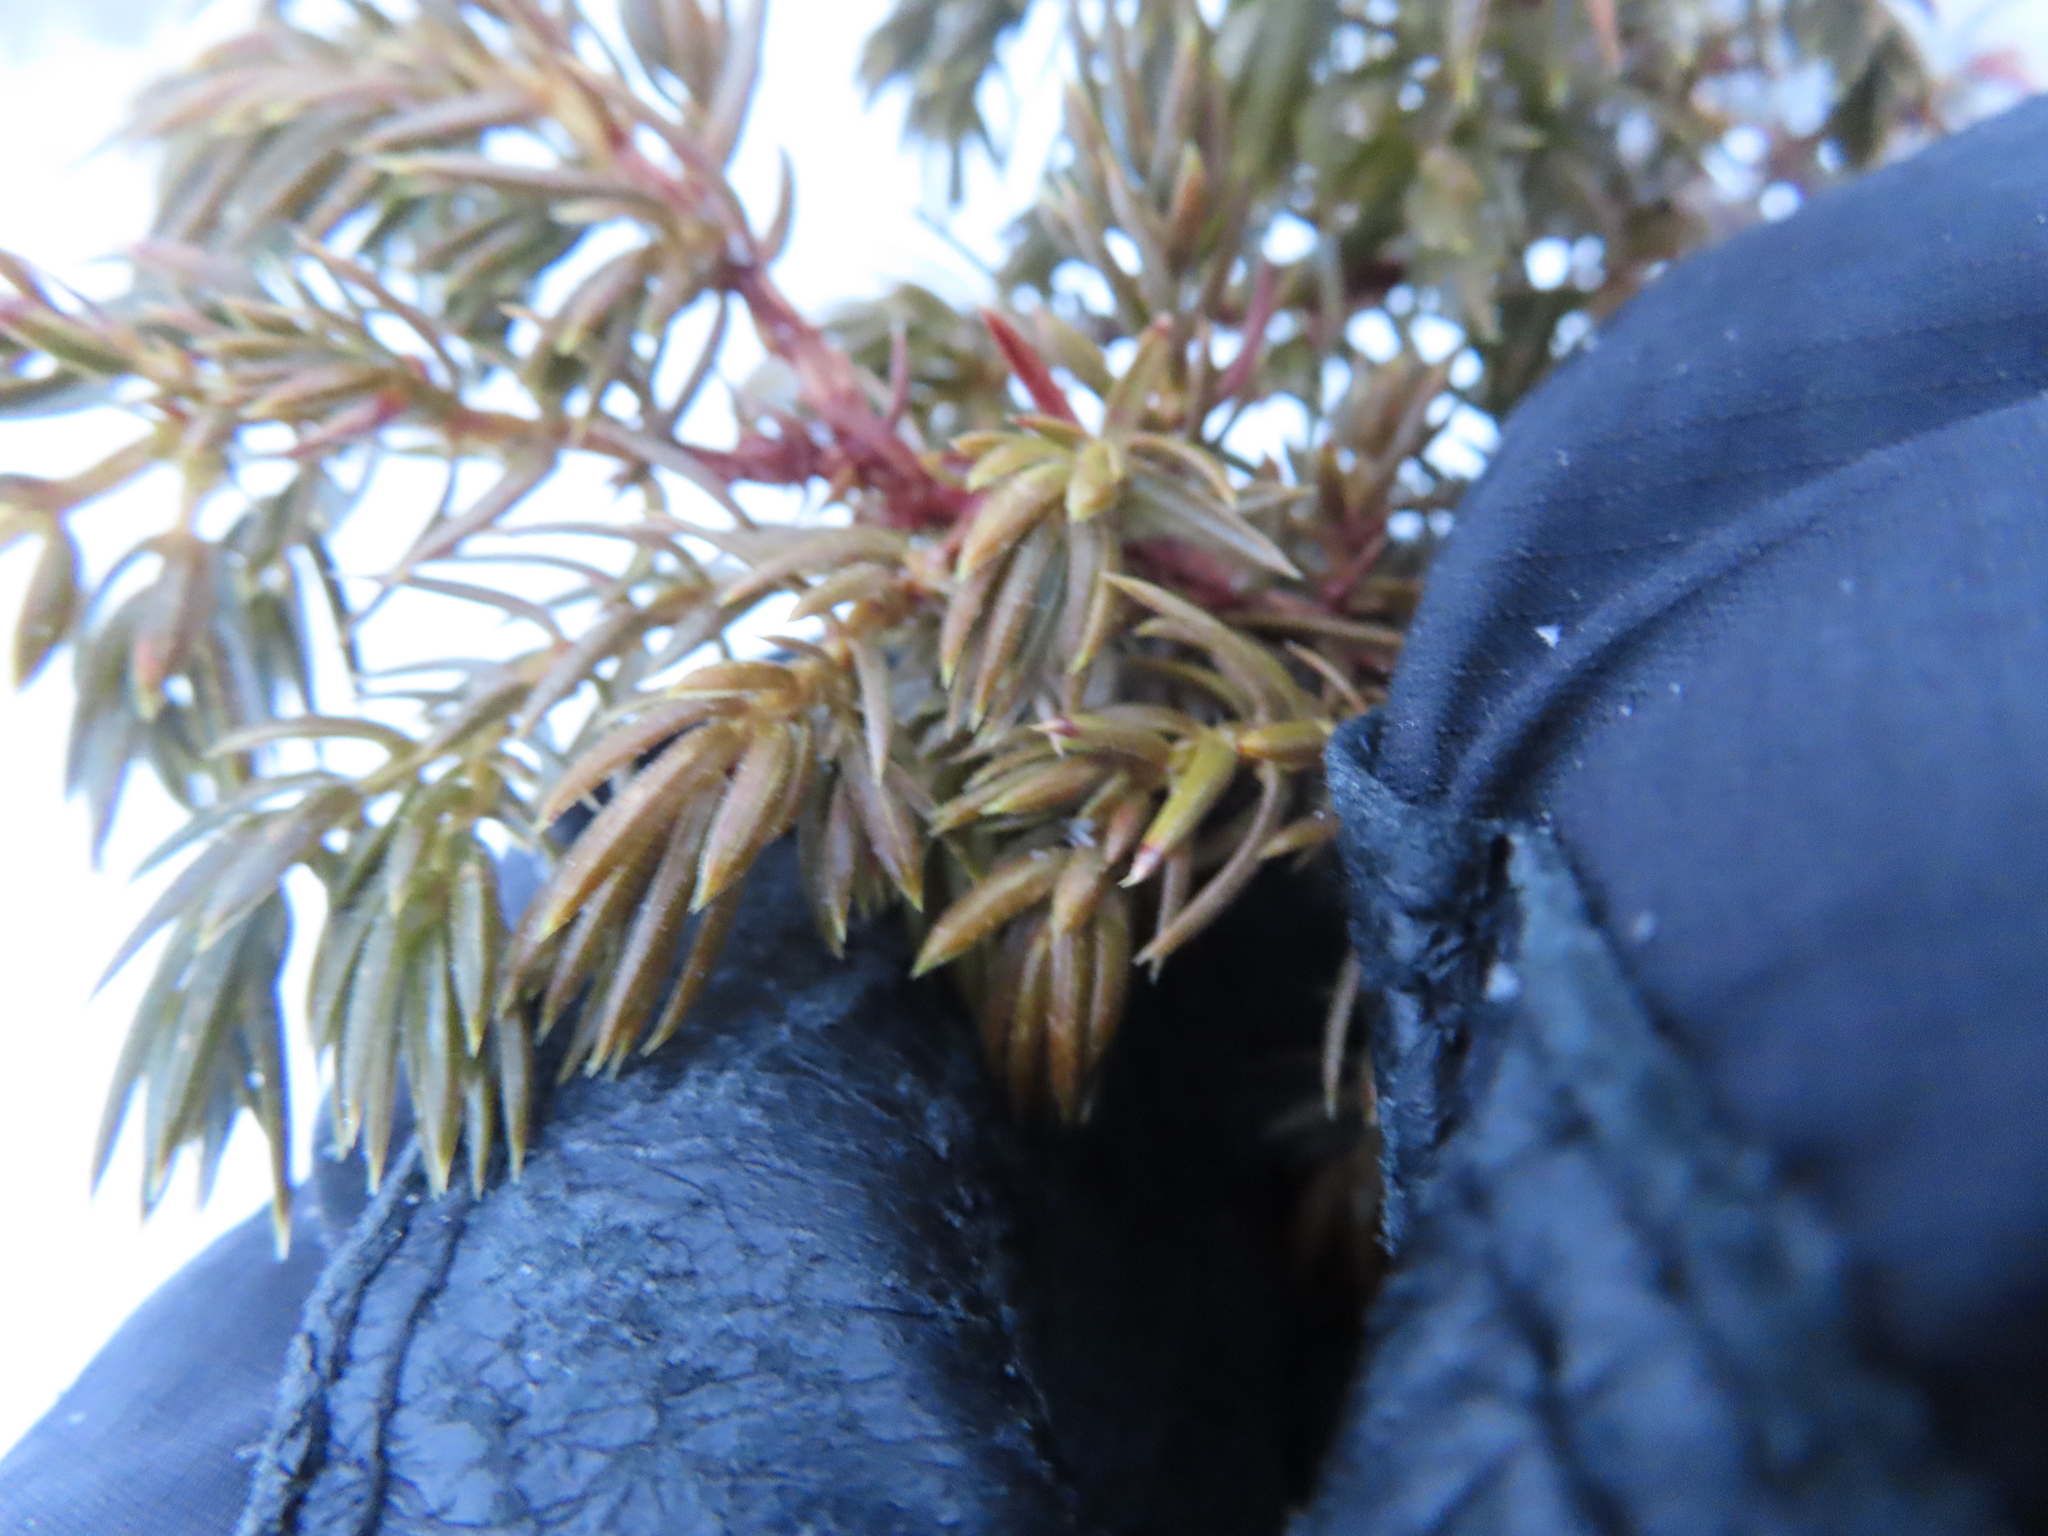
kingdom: Plantae
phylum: Tracheophyta
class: Pinopsida
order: Pinales
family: Cupressaceae
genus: Juniperus
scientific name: Juniperus communis
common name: Common juniper
